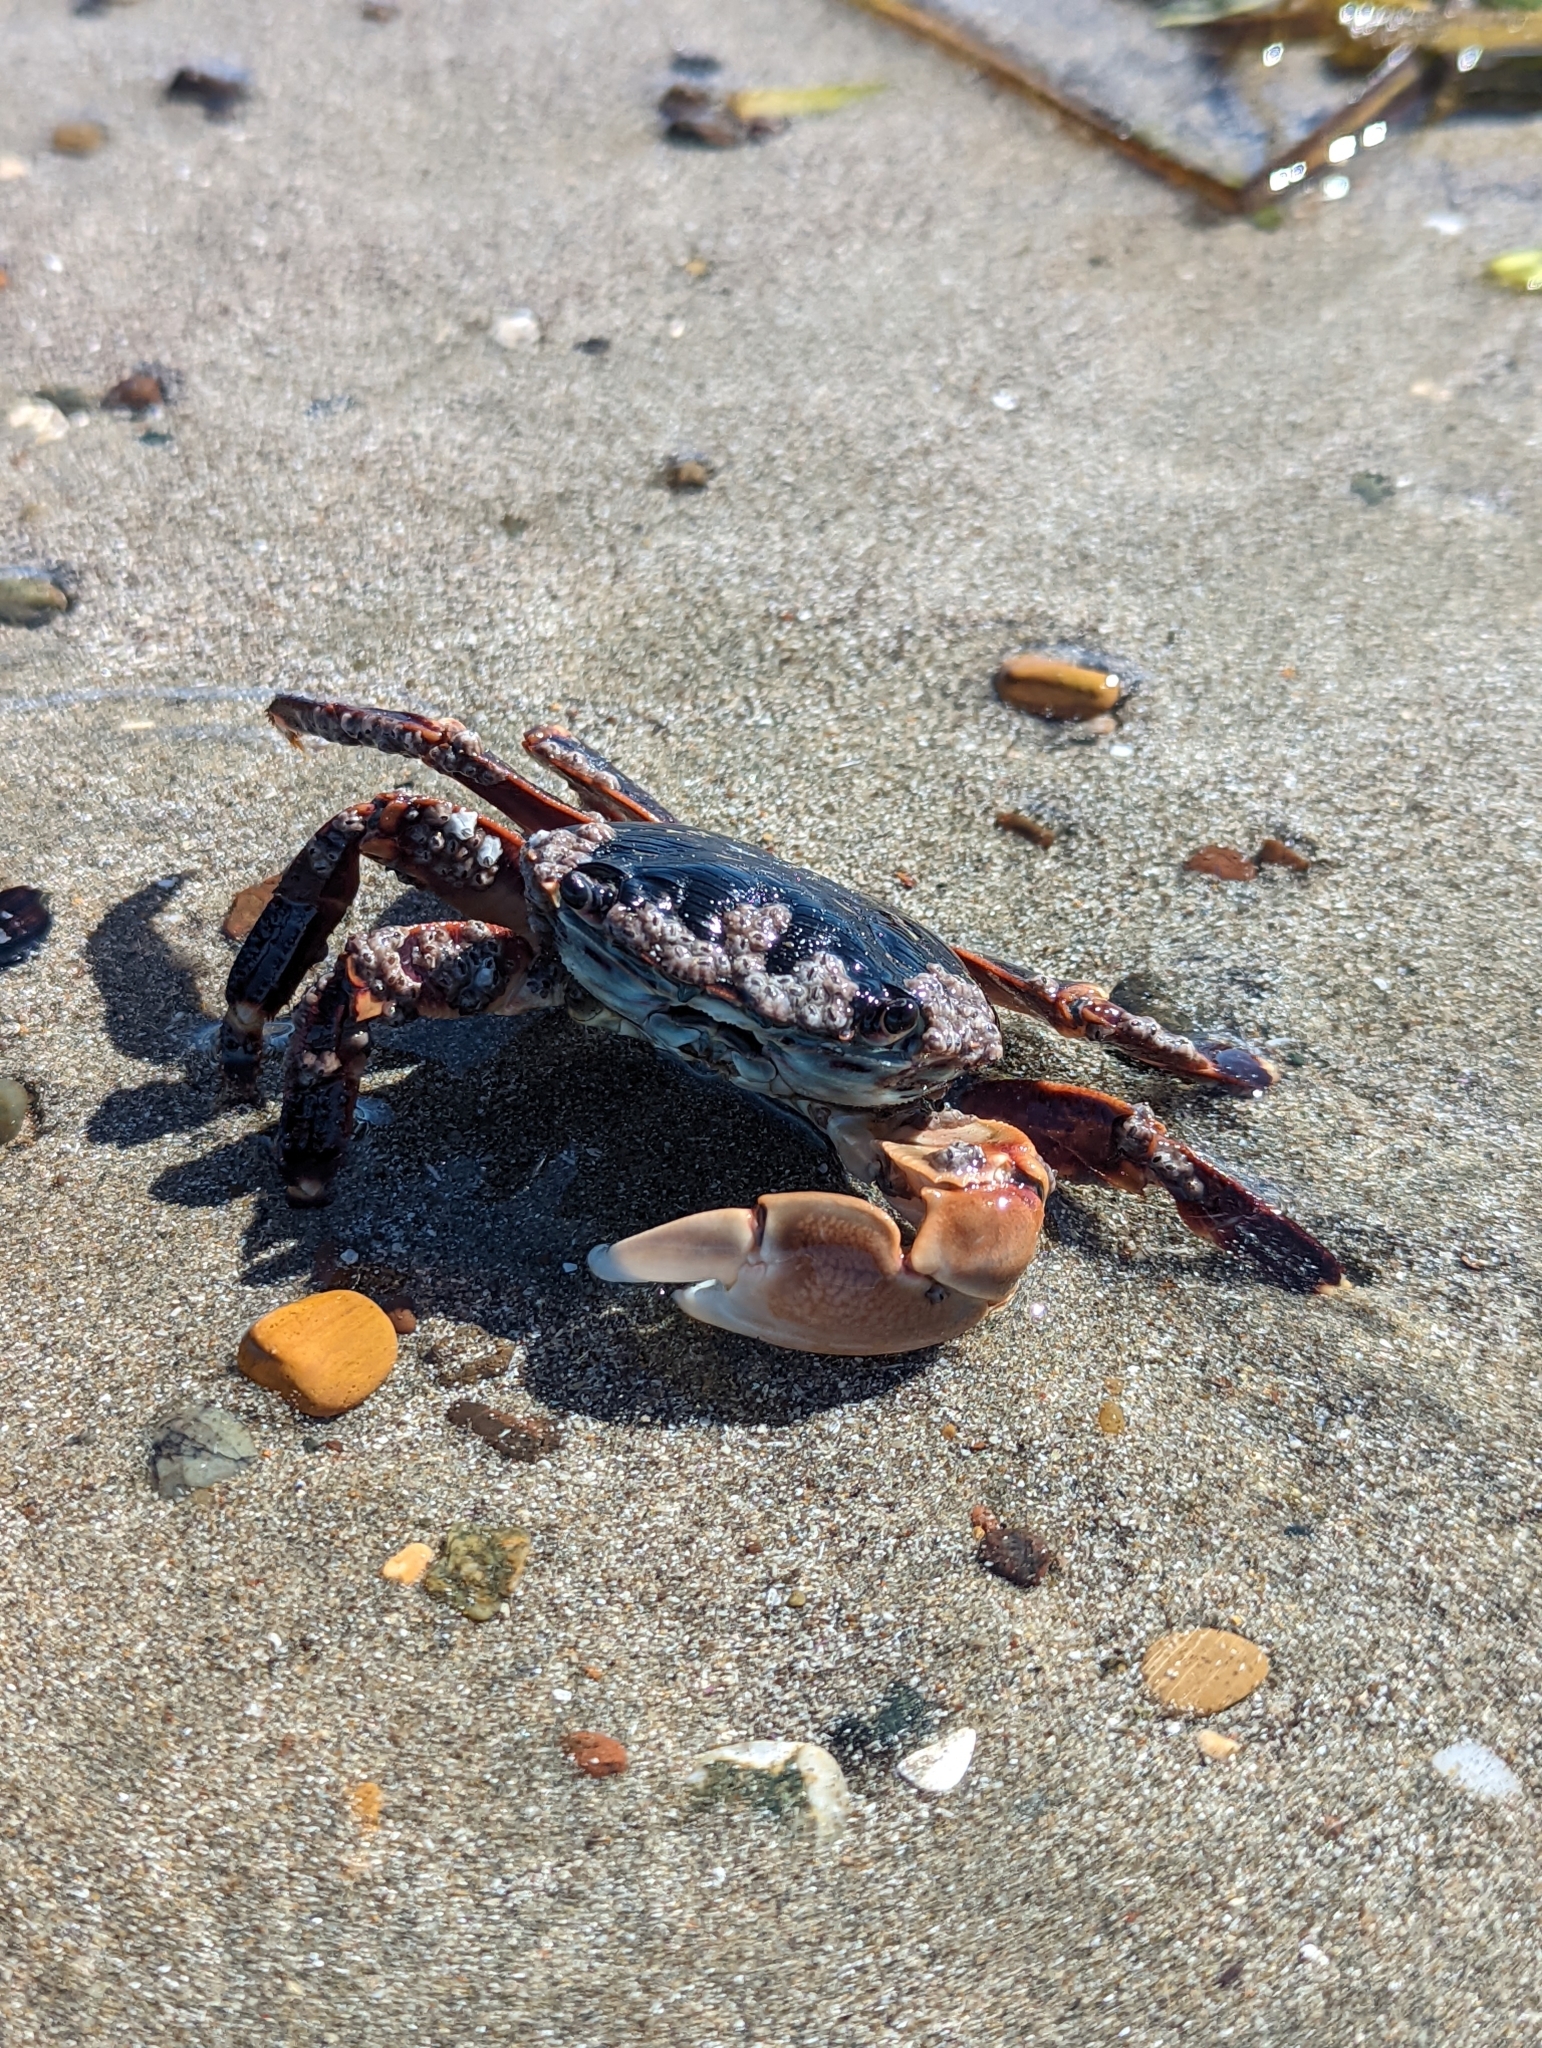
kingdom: Animalia
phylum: Arthropoda
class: Malacostraca
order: Decapoda
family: Grapsidae
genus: Pachygrapsus
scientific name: Pachygrapsus crassipes
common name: Striped shore crab
